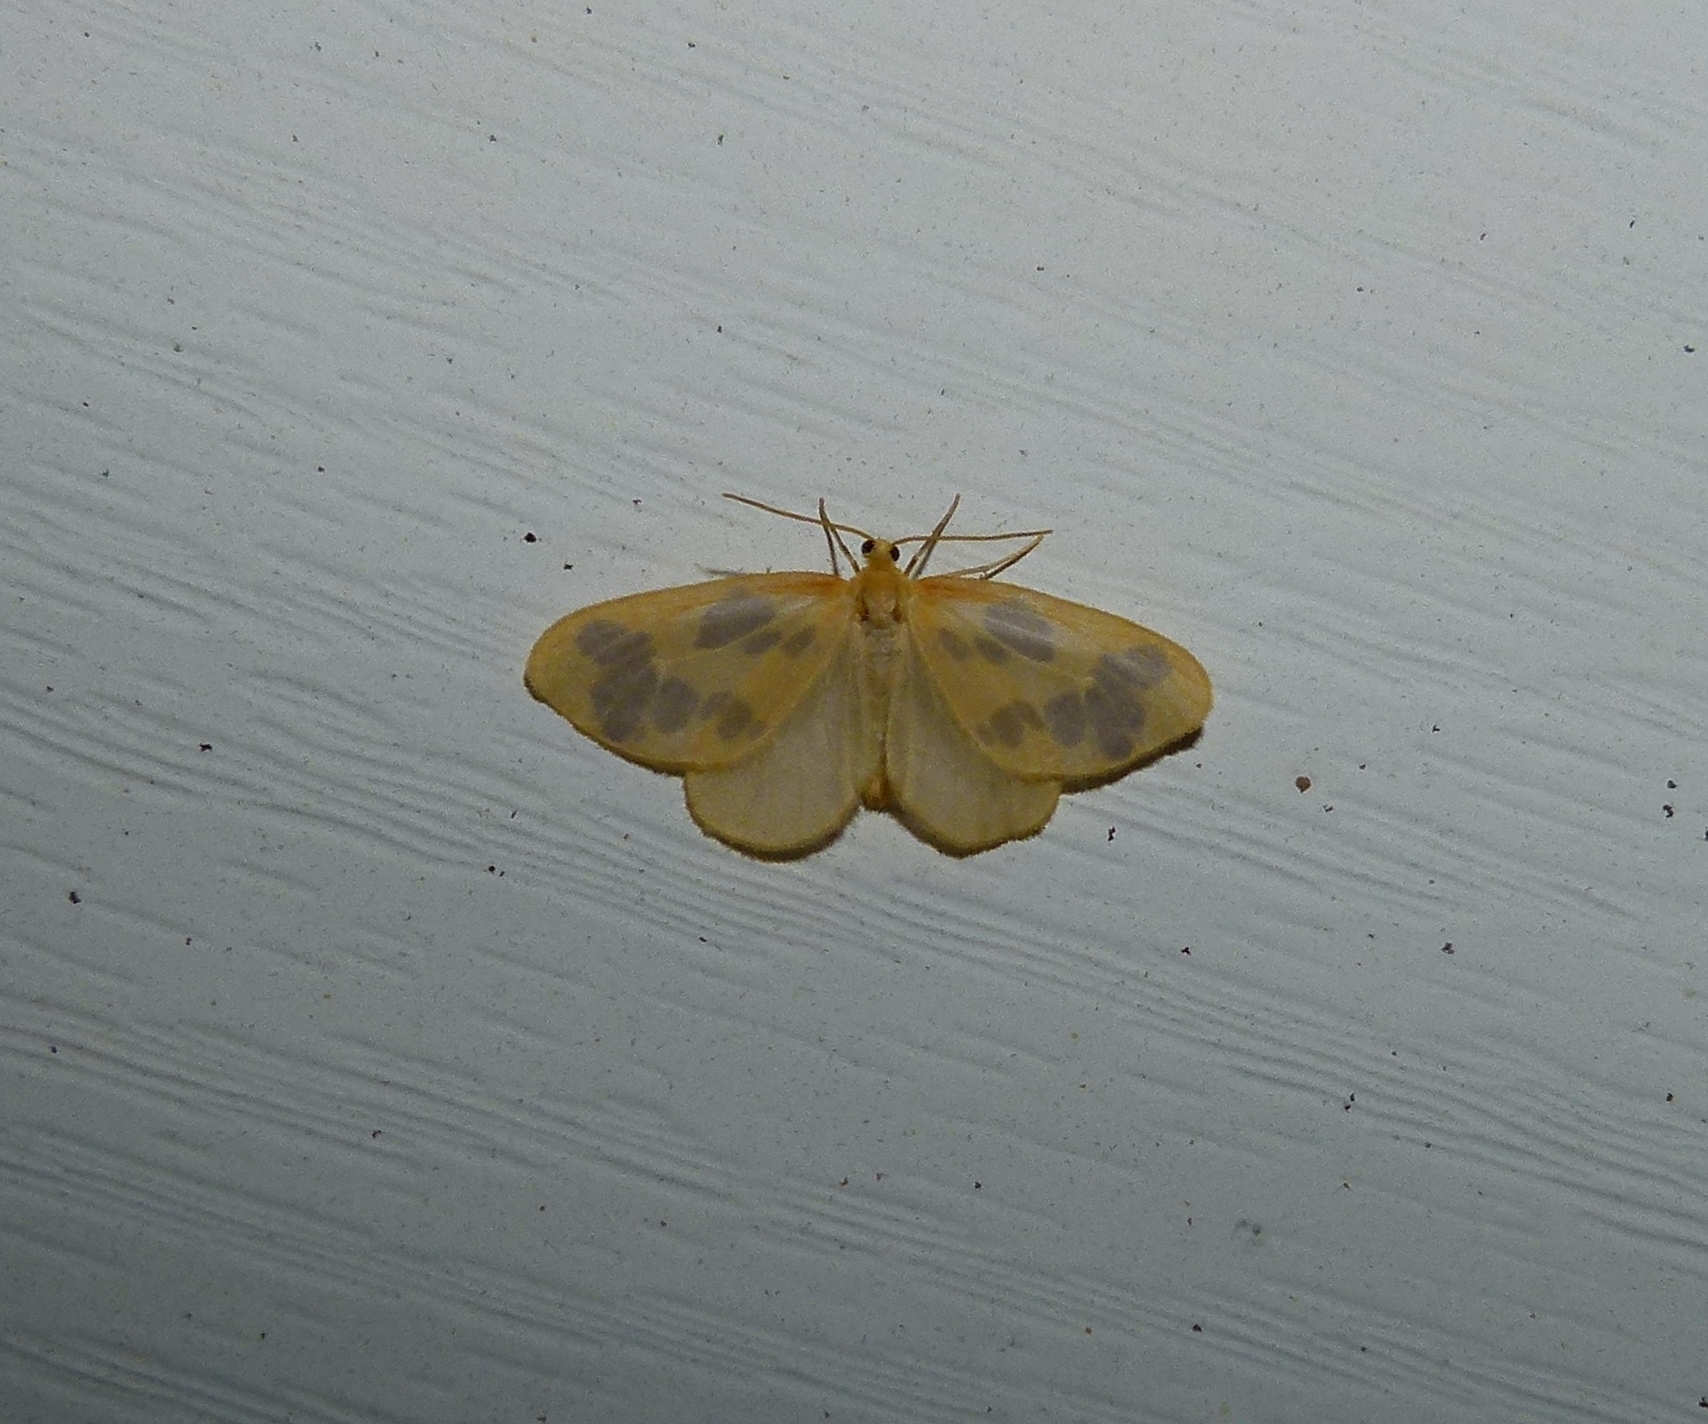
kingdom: Animalia
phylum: Arthropoda
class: Insecta
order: Lepidoptera
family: Geometridae
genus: Eubaphe
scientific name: Eubaphe mendica
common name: Beggar
